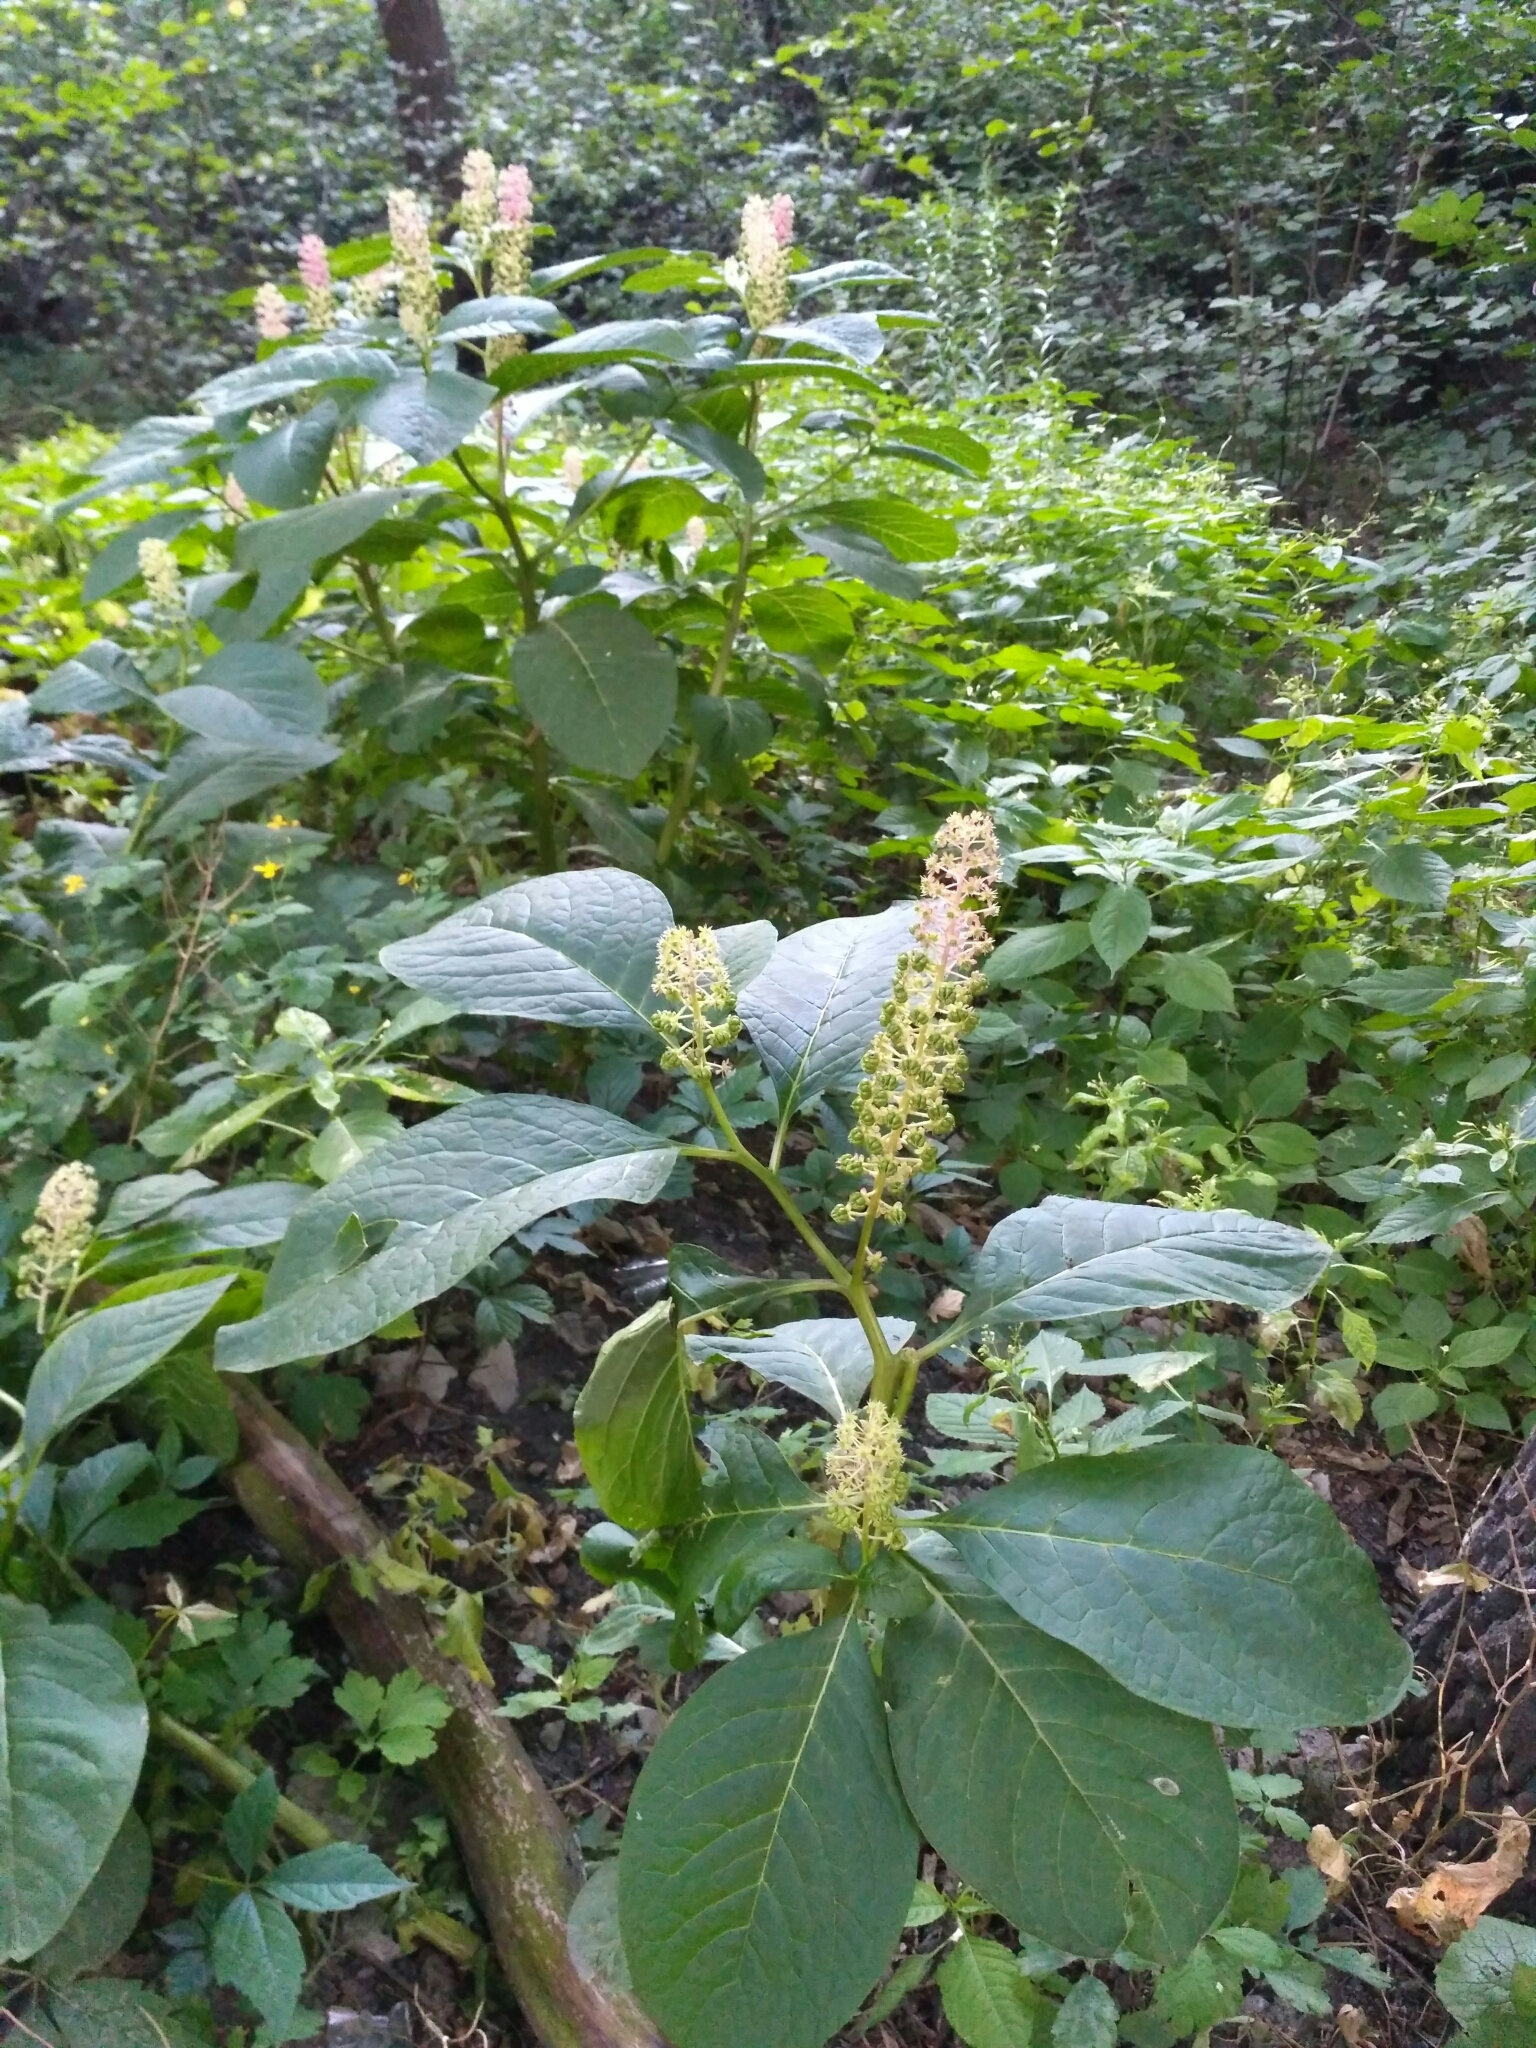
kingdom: Plantae
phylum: Tracheophyta
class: Magnoliopsida
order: Caryophyllales
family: Phytolaccaceae
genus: Phytolacca
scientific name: Phytolacca acinosa
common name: Indian pokeweed
